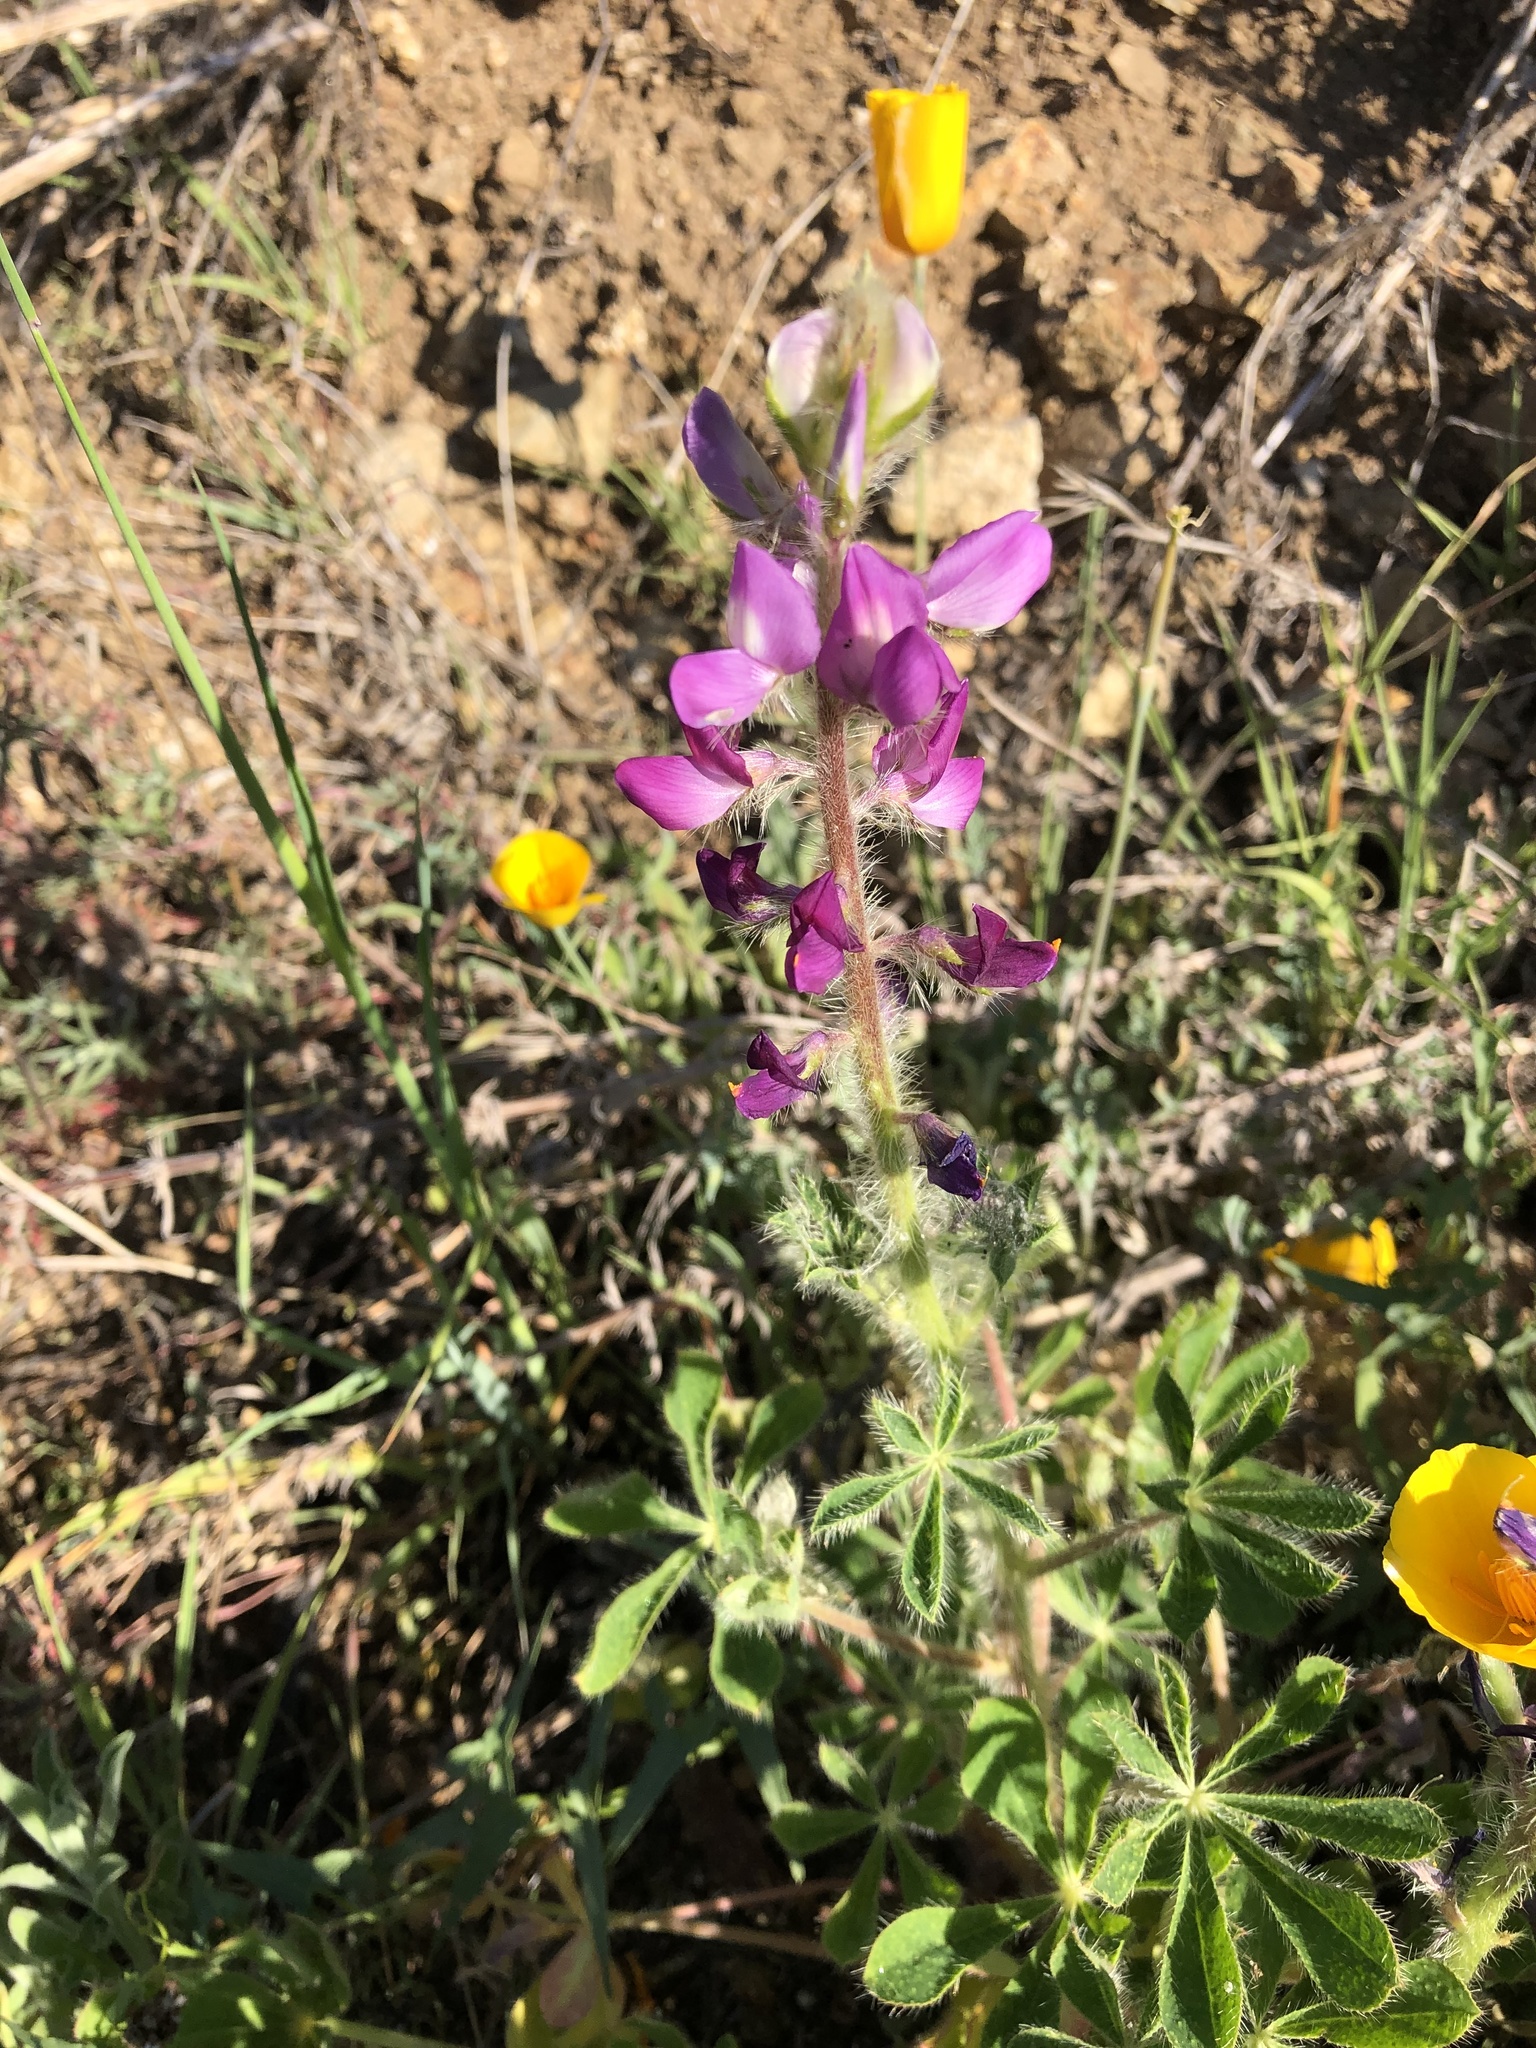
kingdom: Plantae
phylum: Tracheophyta
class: Magnoliopsida
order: Fabales
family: Fabaceae
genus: Lupinus
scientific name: Lupinus hirsutissimus
